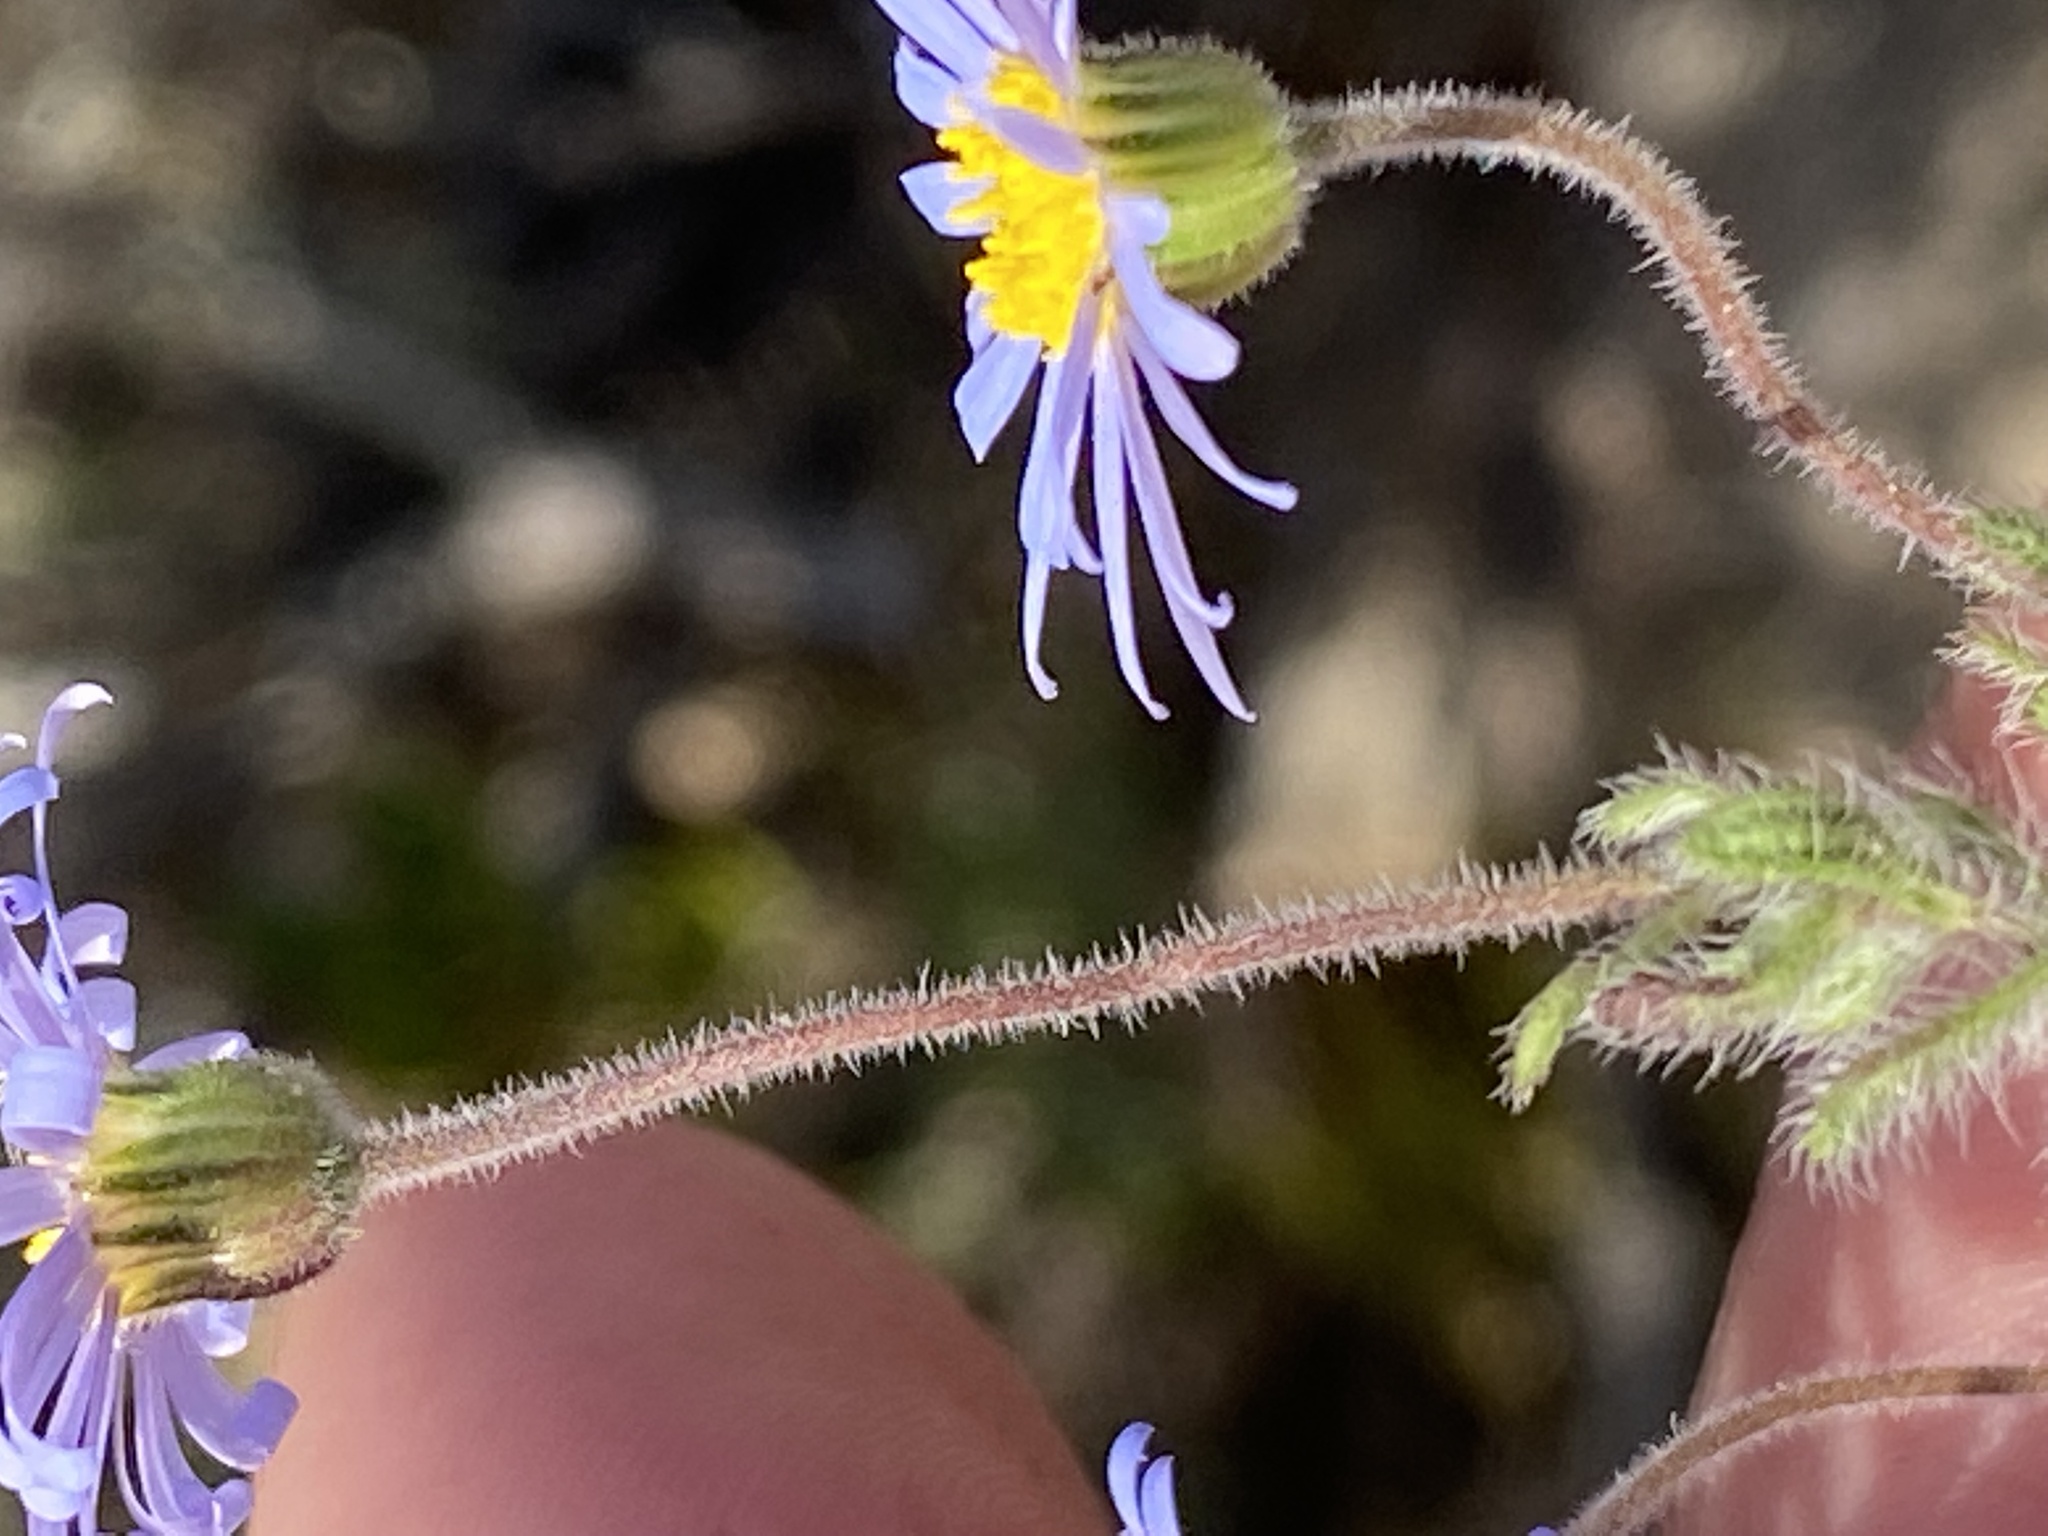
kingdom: Plantae
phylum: Tracheophyta
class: Magnoliopsida
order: Asterales
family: Asteraceae
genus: Felicia
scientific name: Felicia amoena
